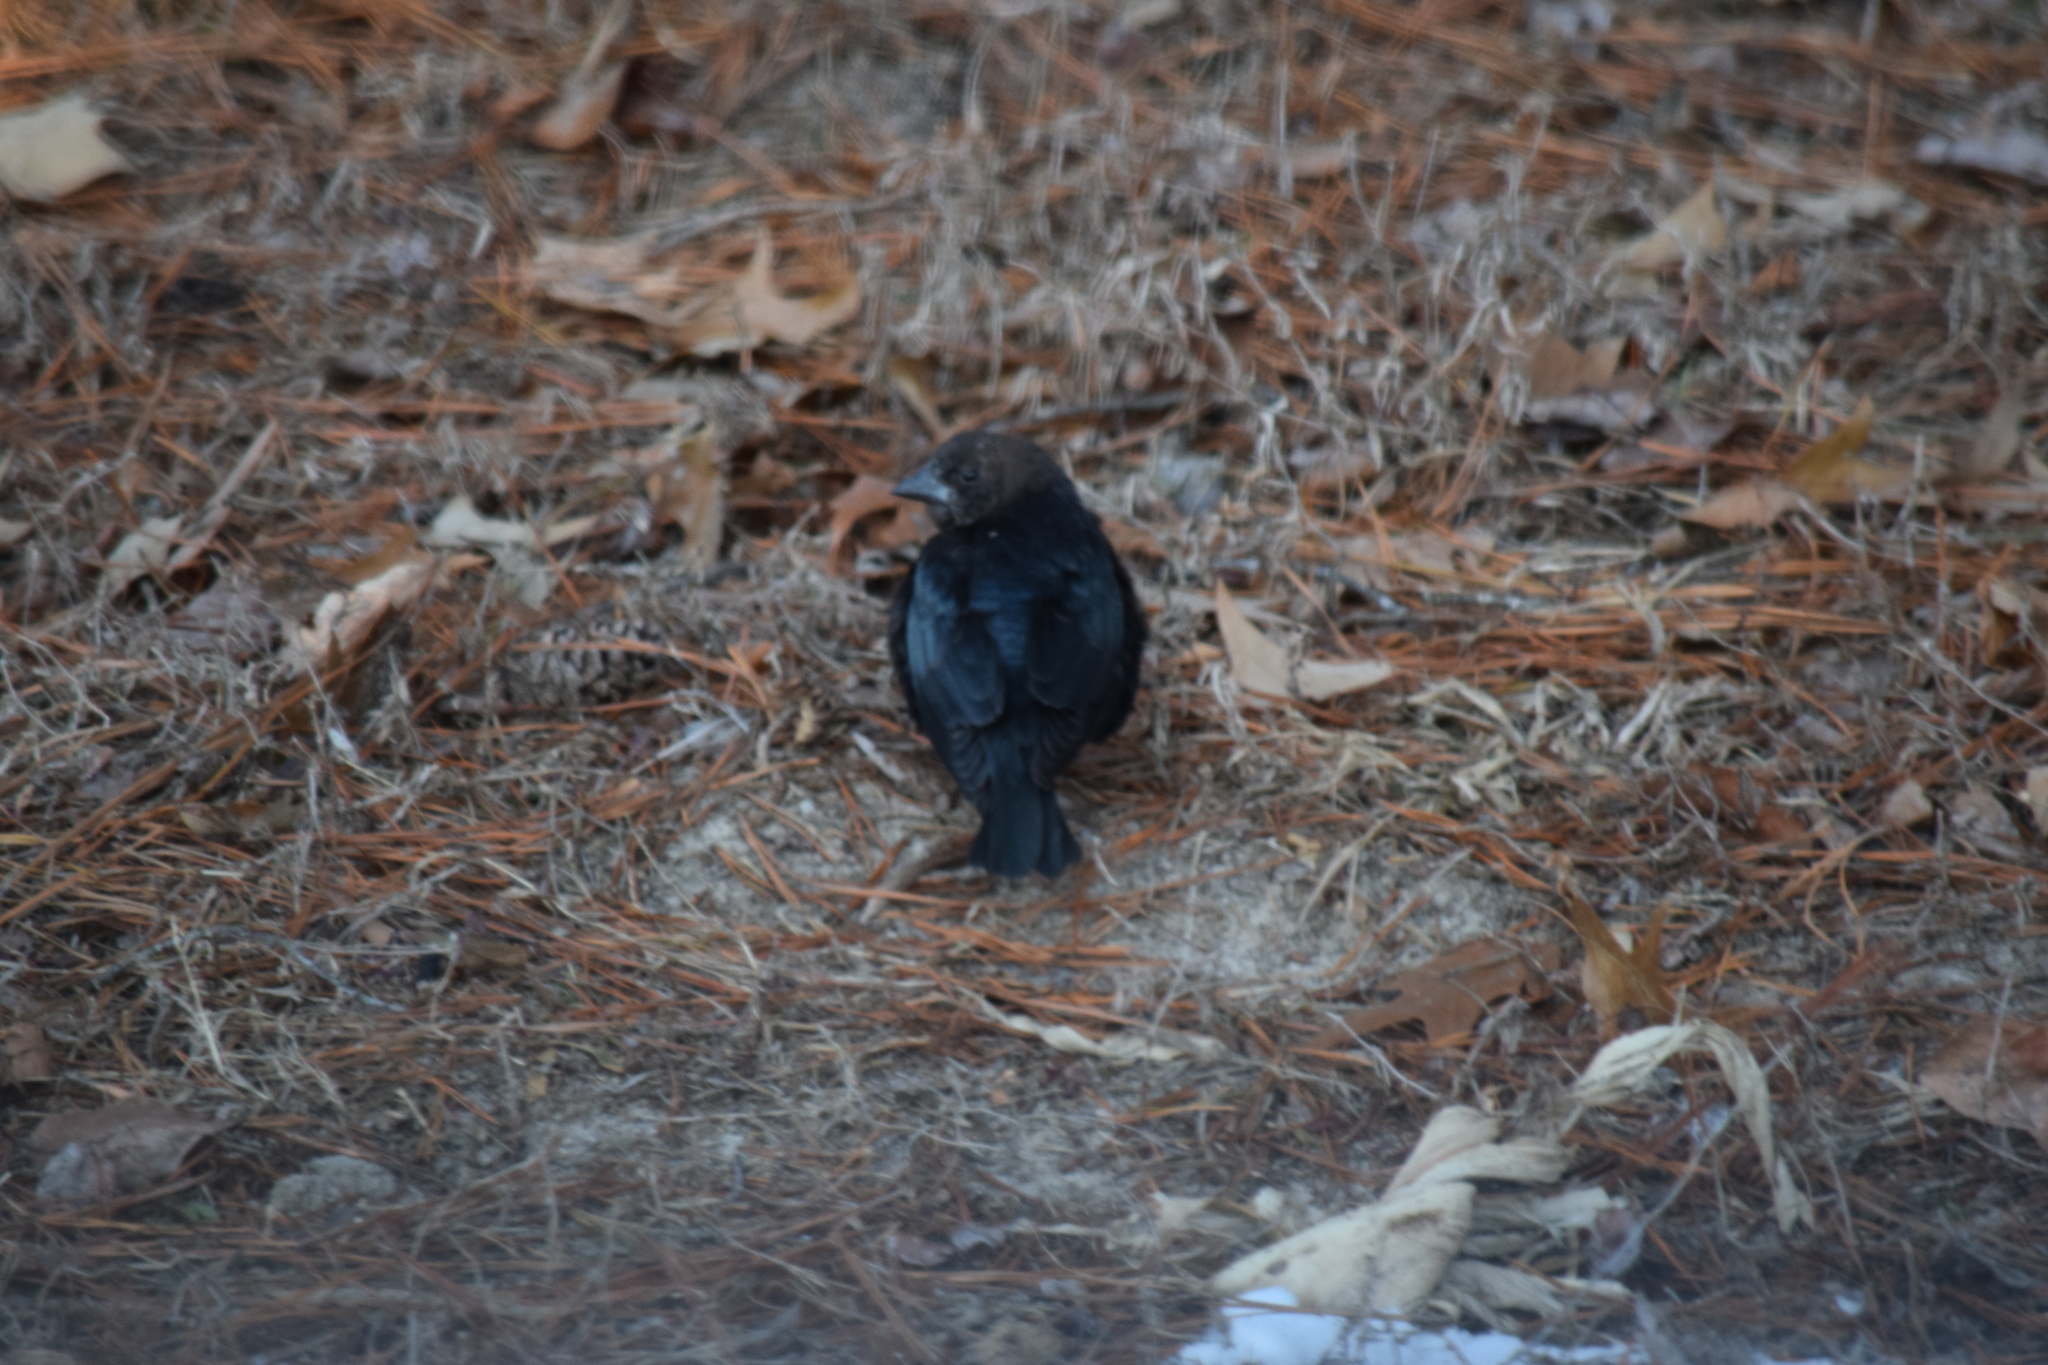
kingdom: Animalia
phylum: Chordata
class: Aves
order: Passeriformes
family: Icteridae
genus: Molothrus
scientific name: Molothrus ater
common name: Brown-headed cowbird
